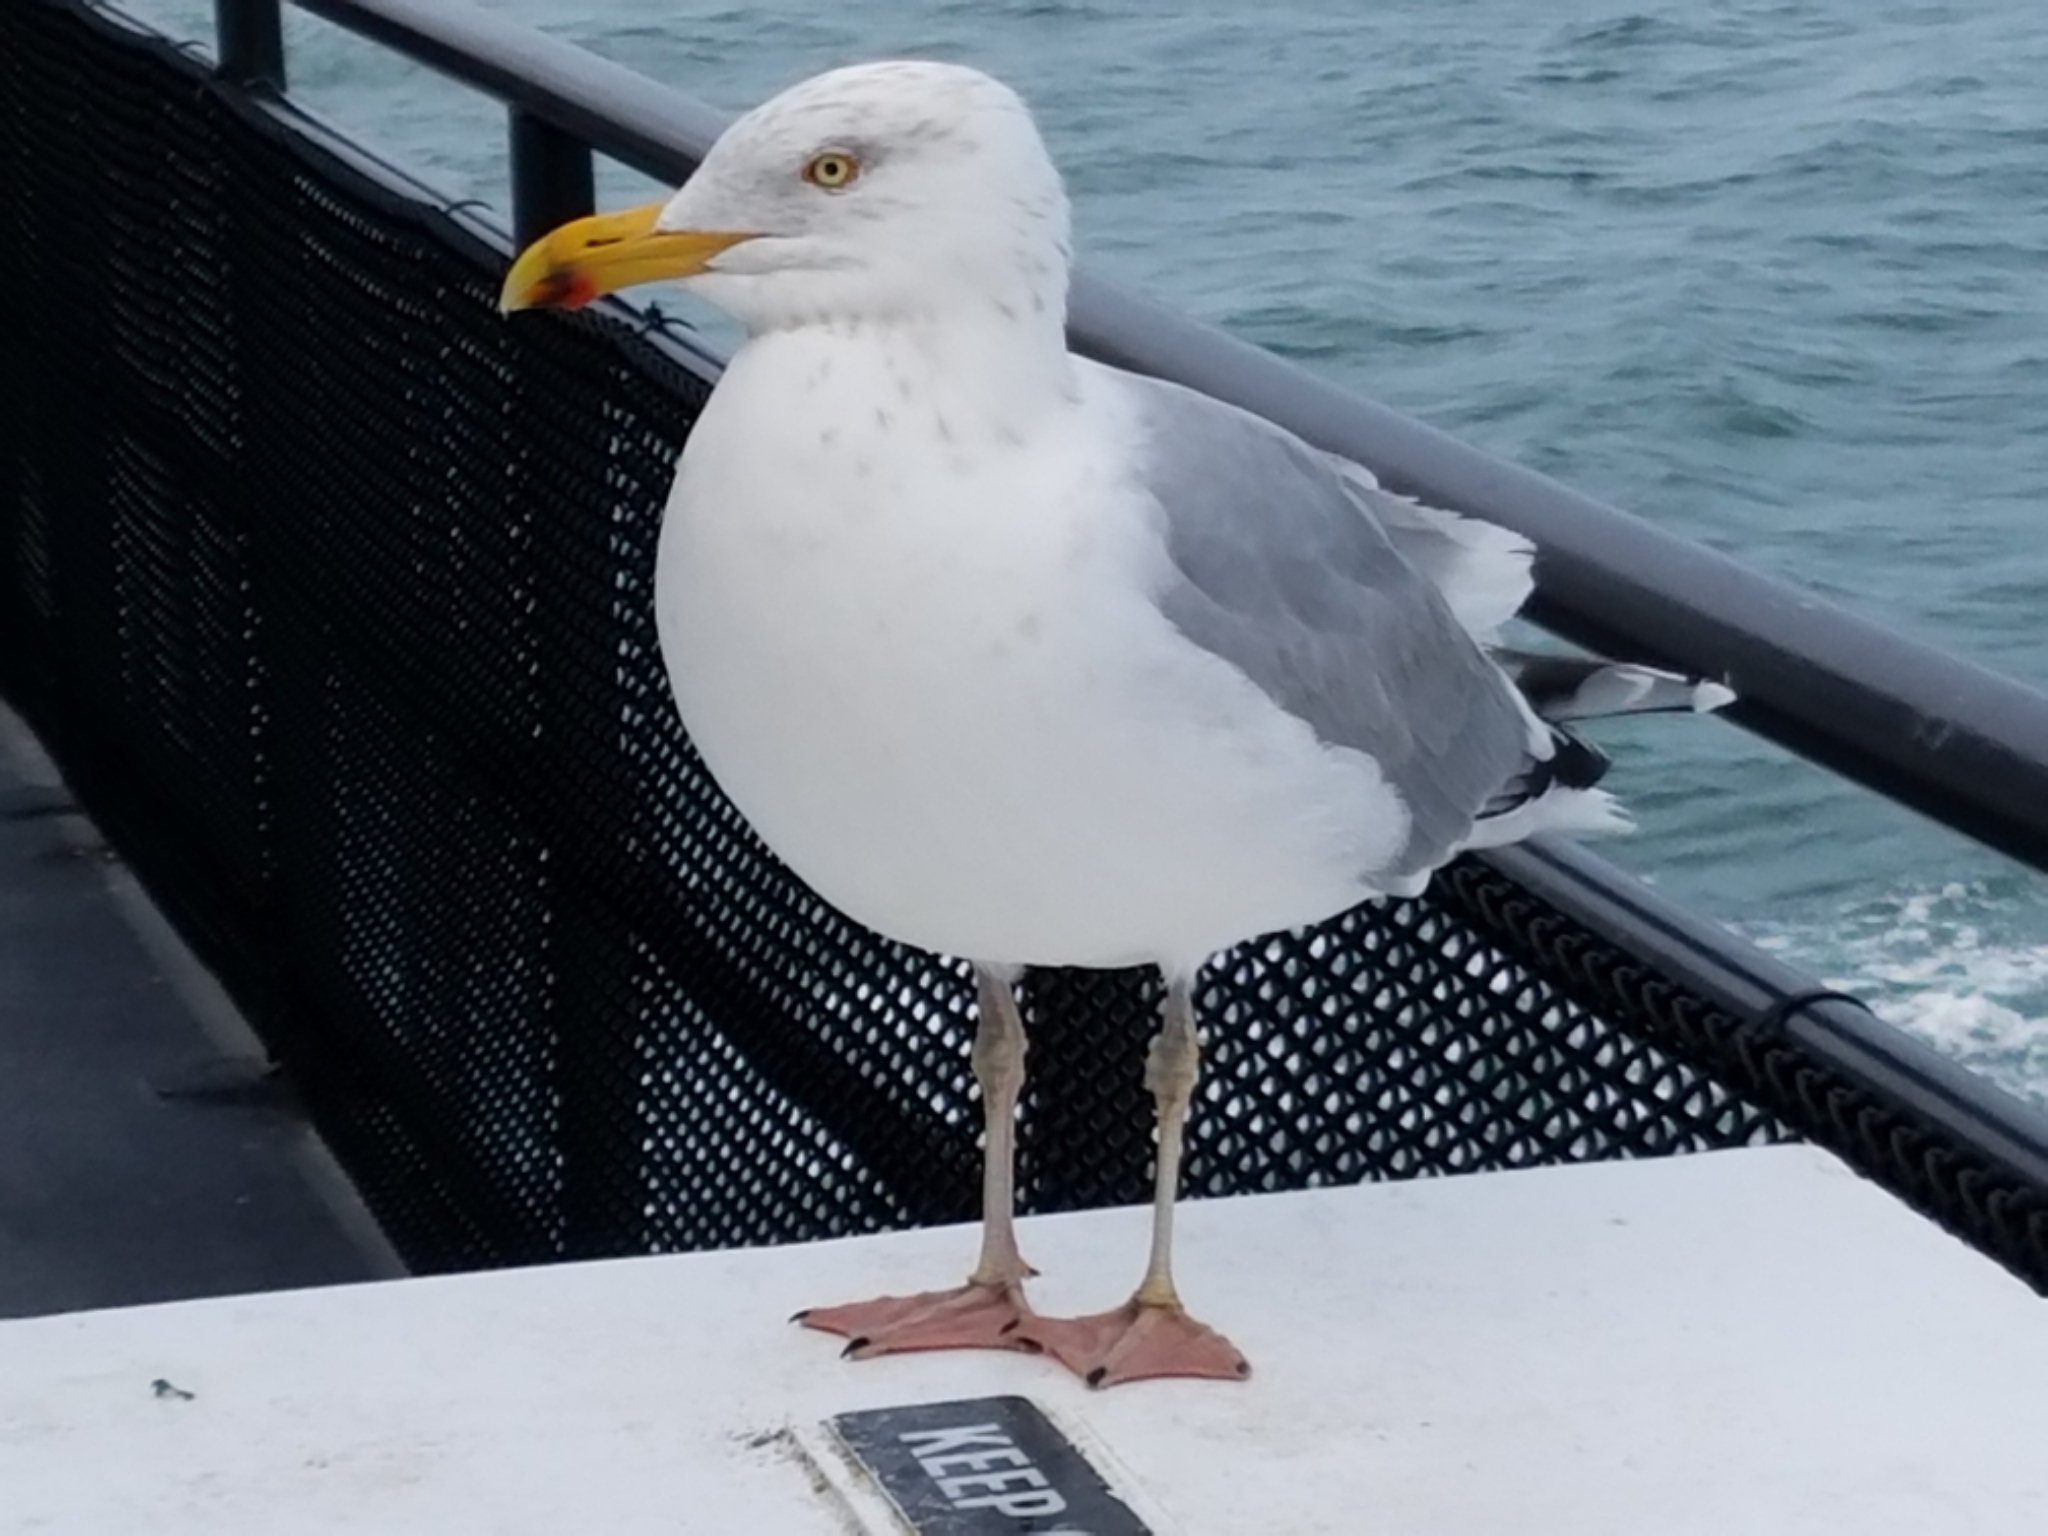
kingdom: Animalia
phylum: Chordata
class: Aves
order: Charadriiformes
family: Laridae
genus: Larus
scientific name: Larus smithsonianus
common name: American herring gull
